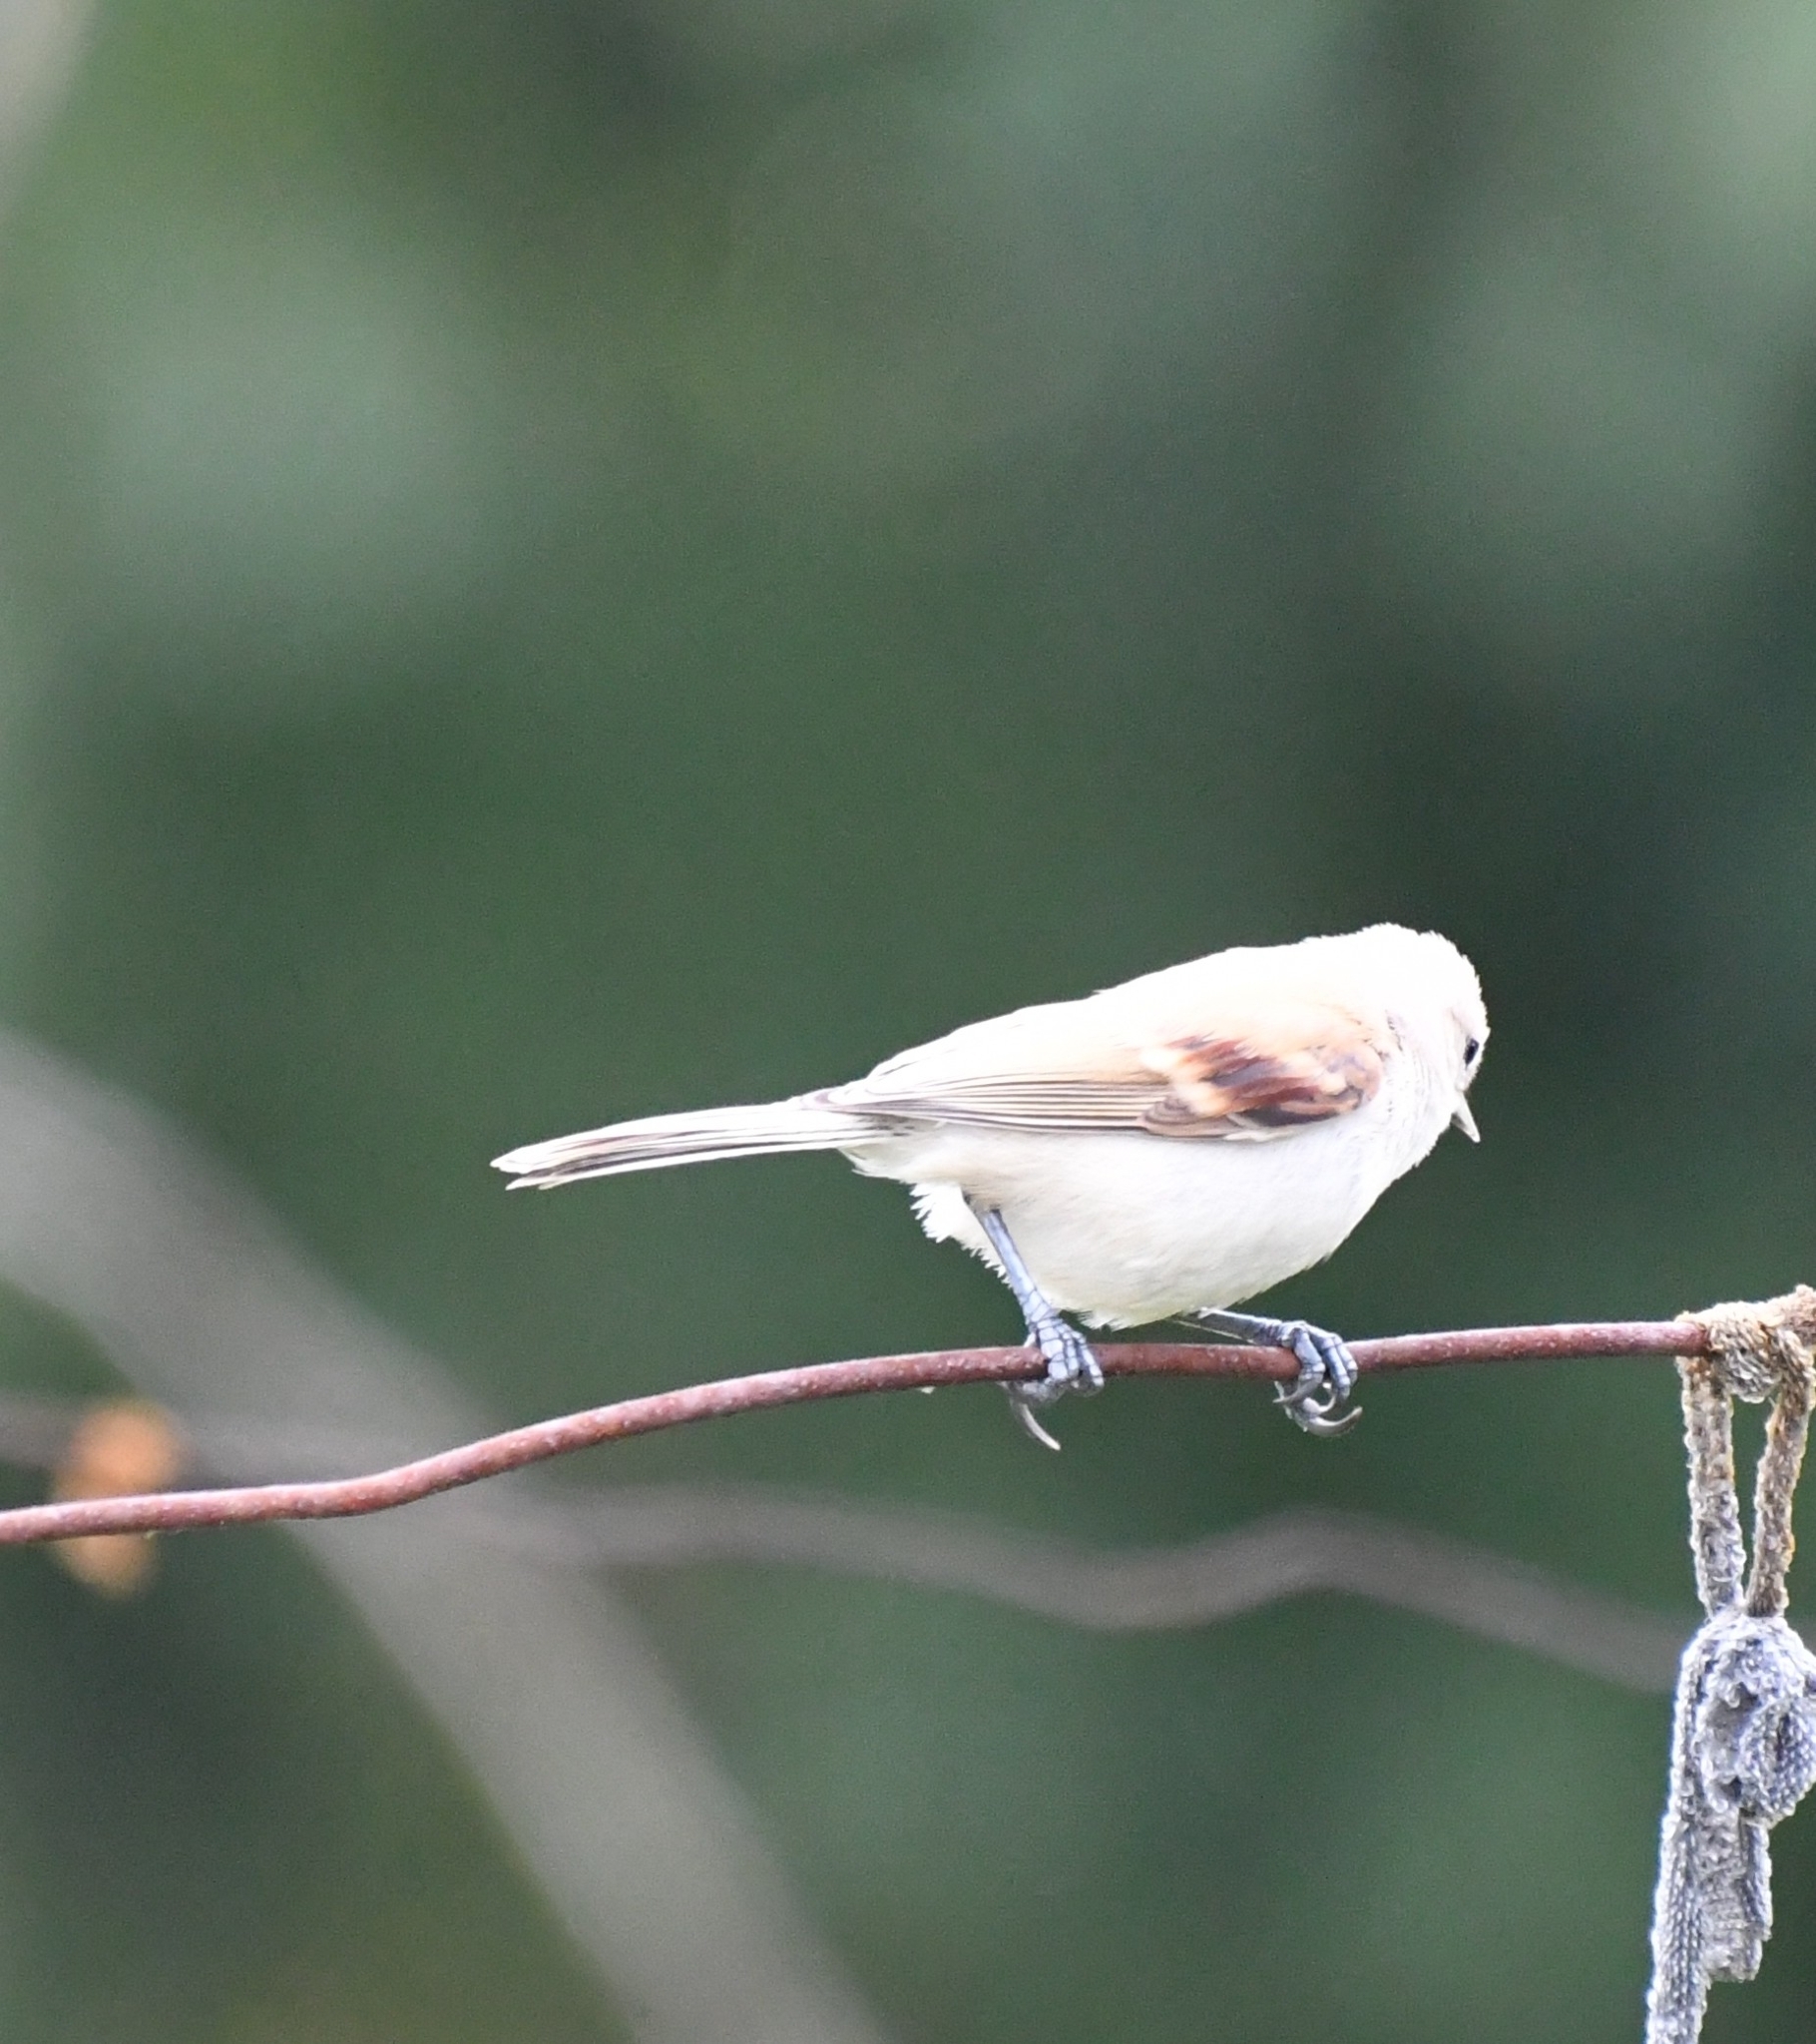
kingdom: Animalia
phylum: Chordata
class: Aves
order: Passeriformes
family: Remizidae
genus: Remiz
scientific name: Remiz pendulinus
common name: Eurasian penduline tit
